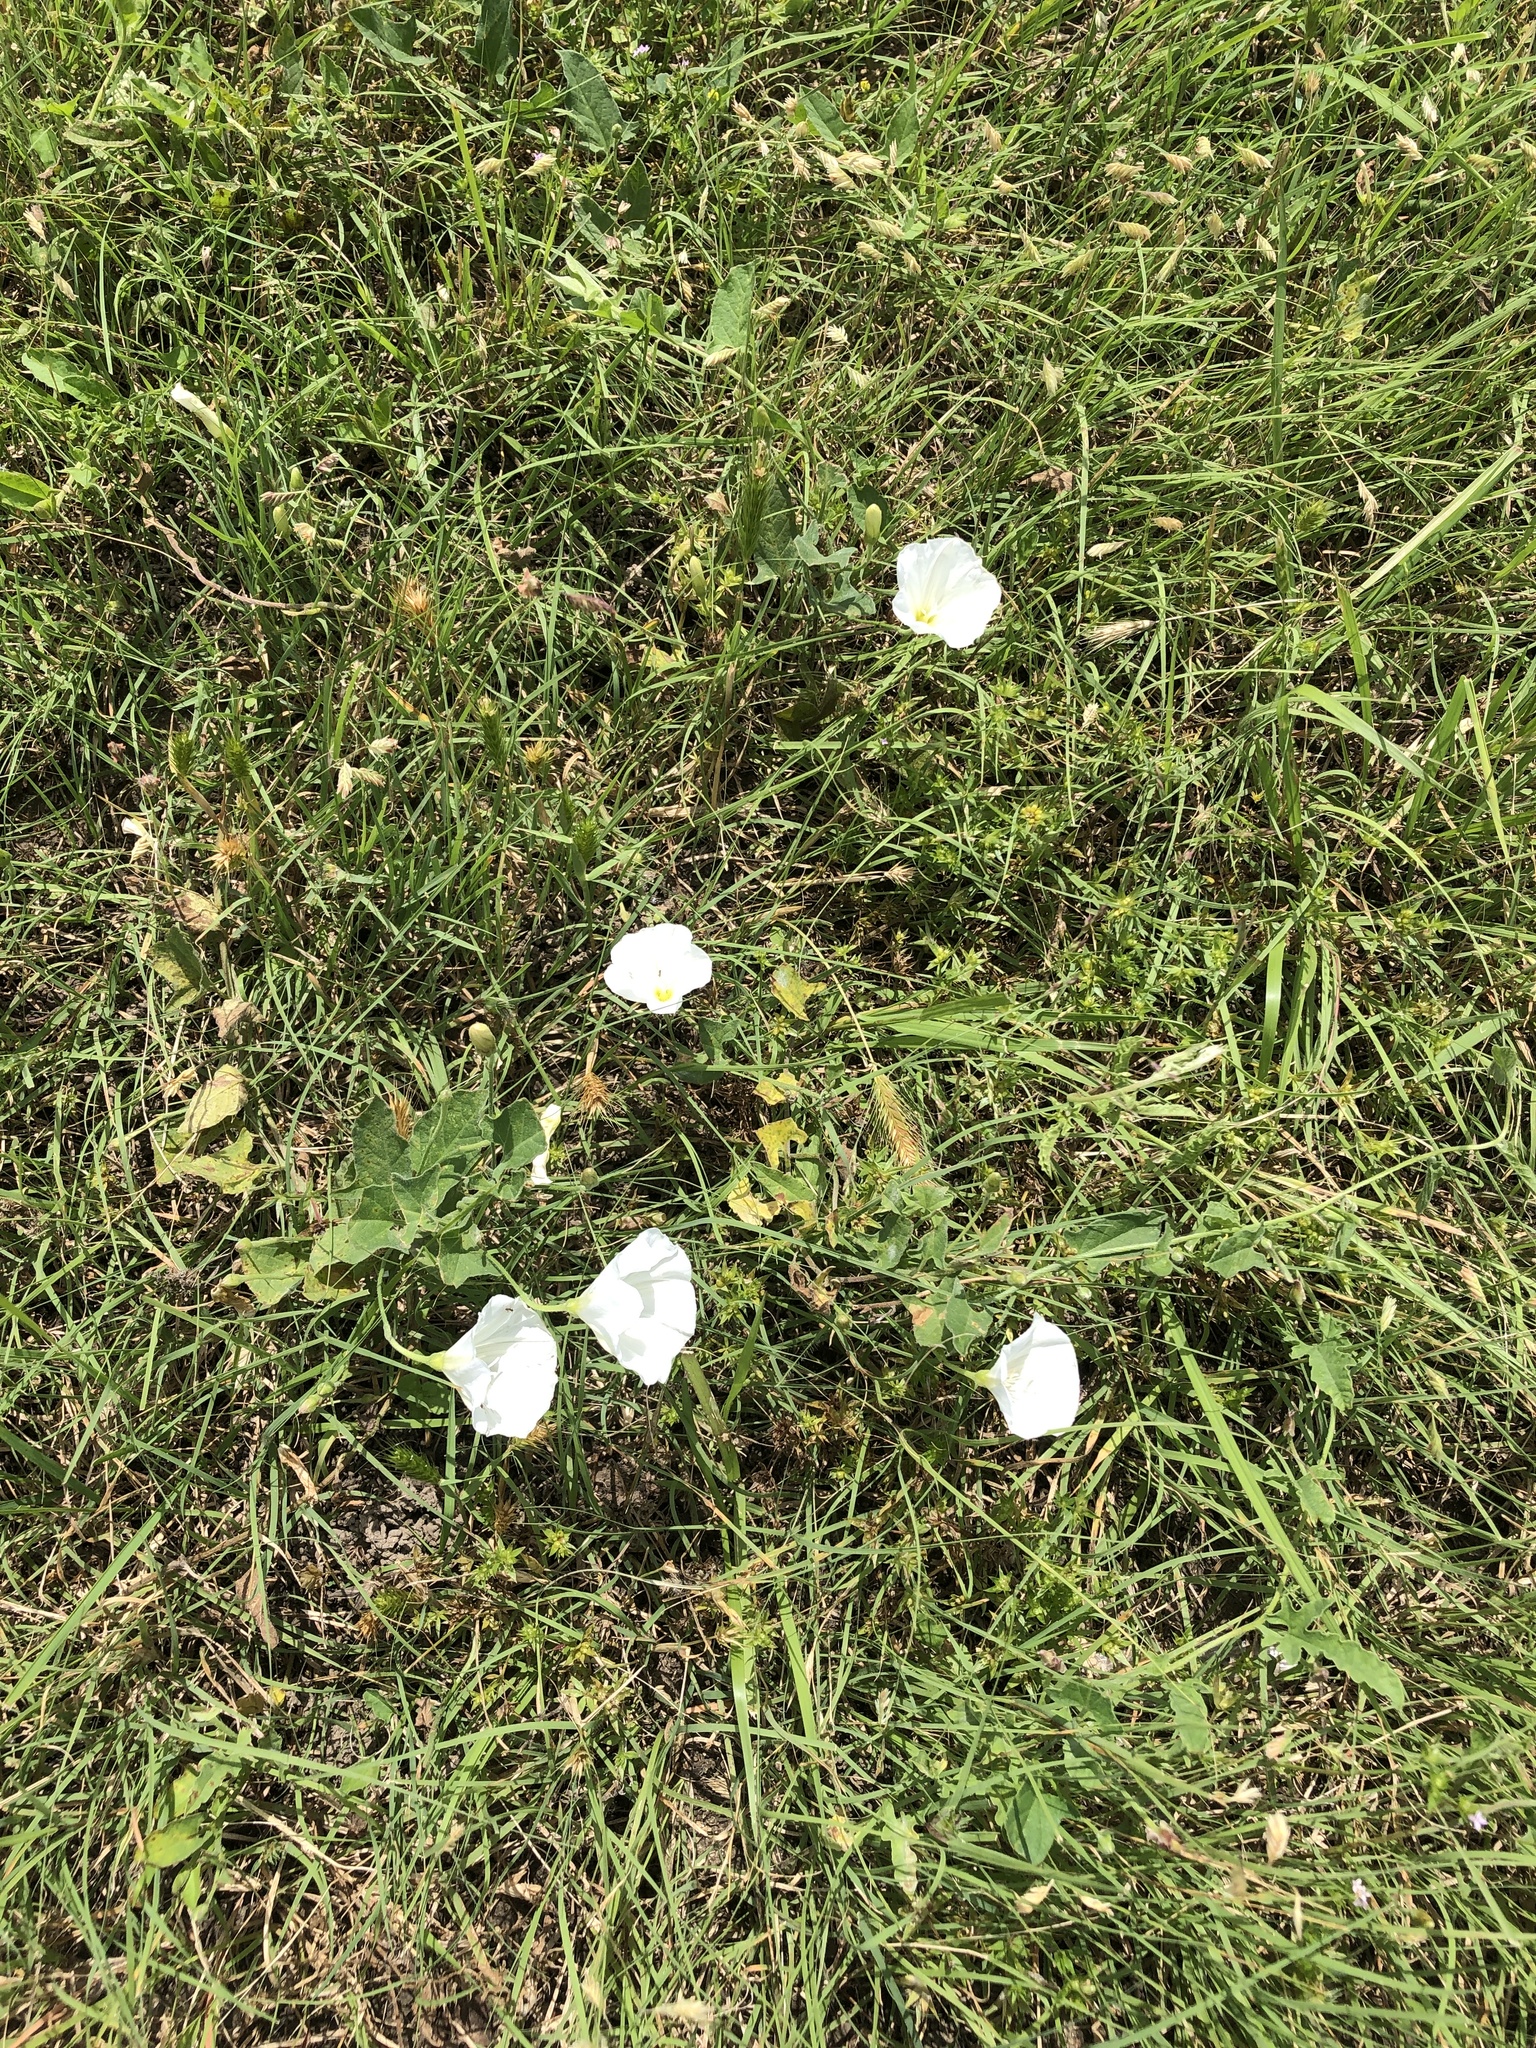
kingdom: Plantae
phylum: Tracheophyta
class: Magnoliopsida
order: Solanales
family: Convolvulaceae
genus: Convolvulus
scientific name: Convolvulus arvensis
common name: Field bindweed
